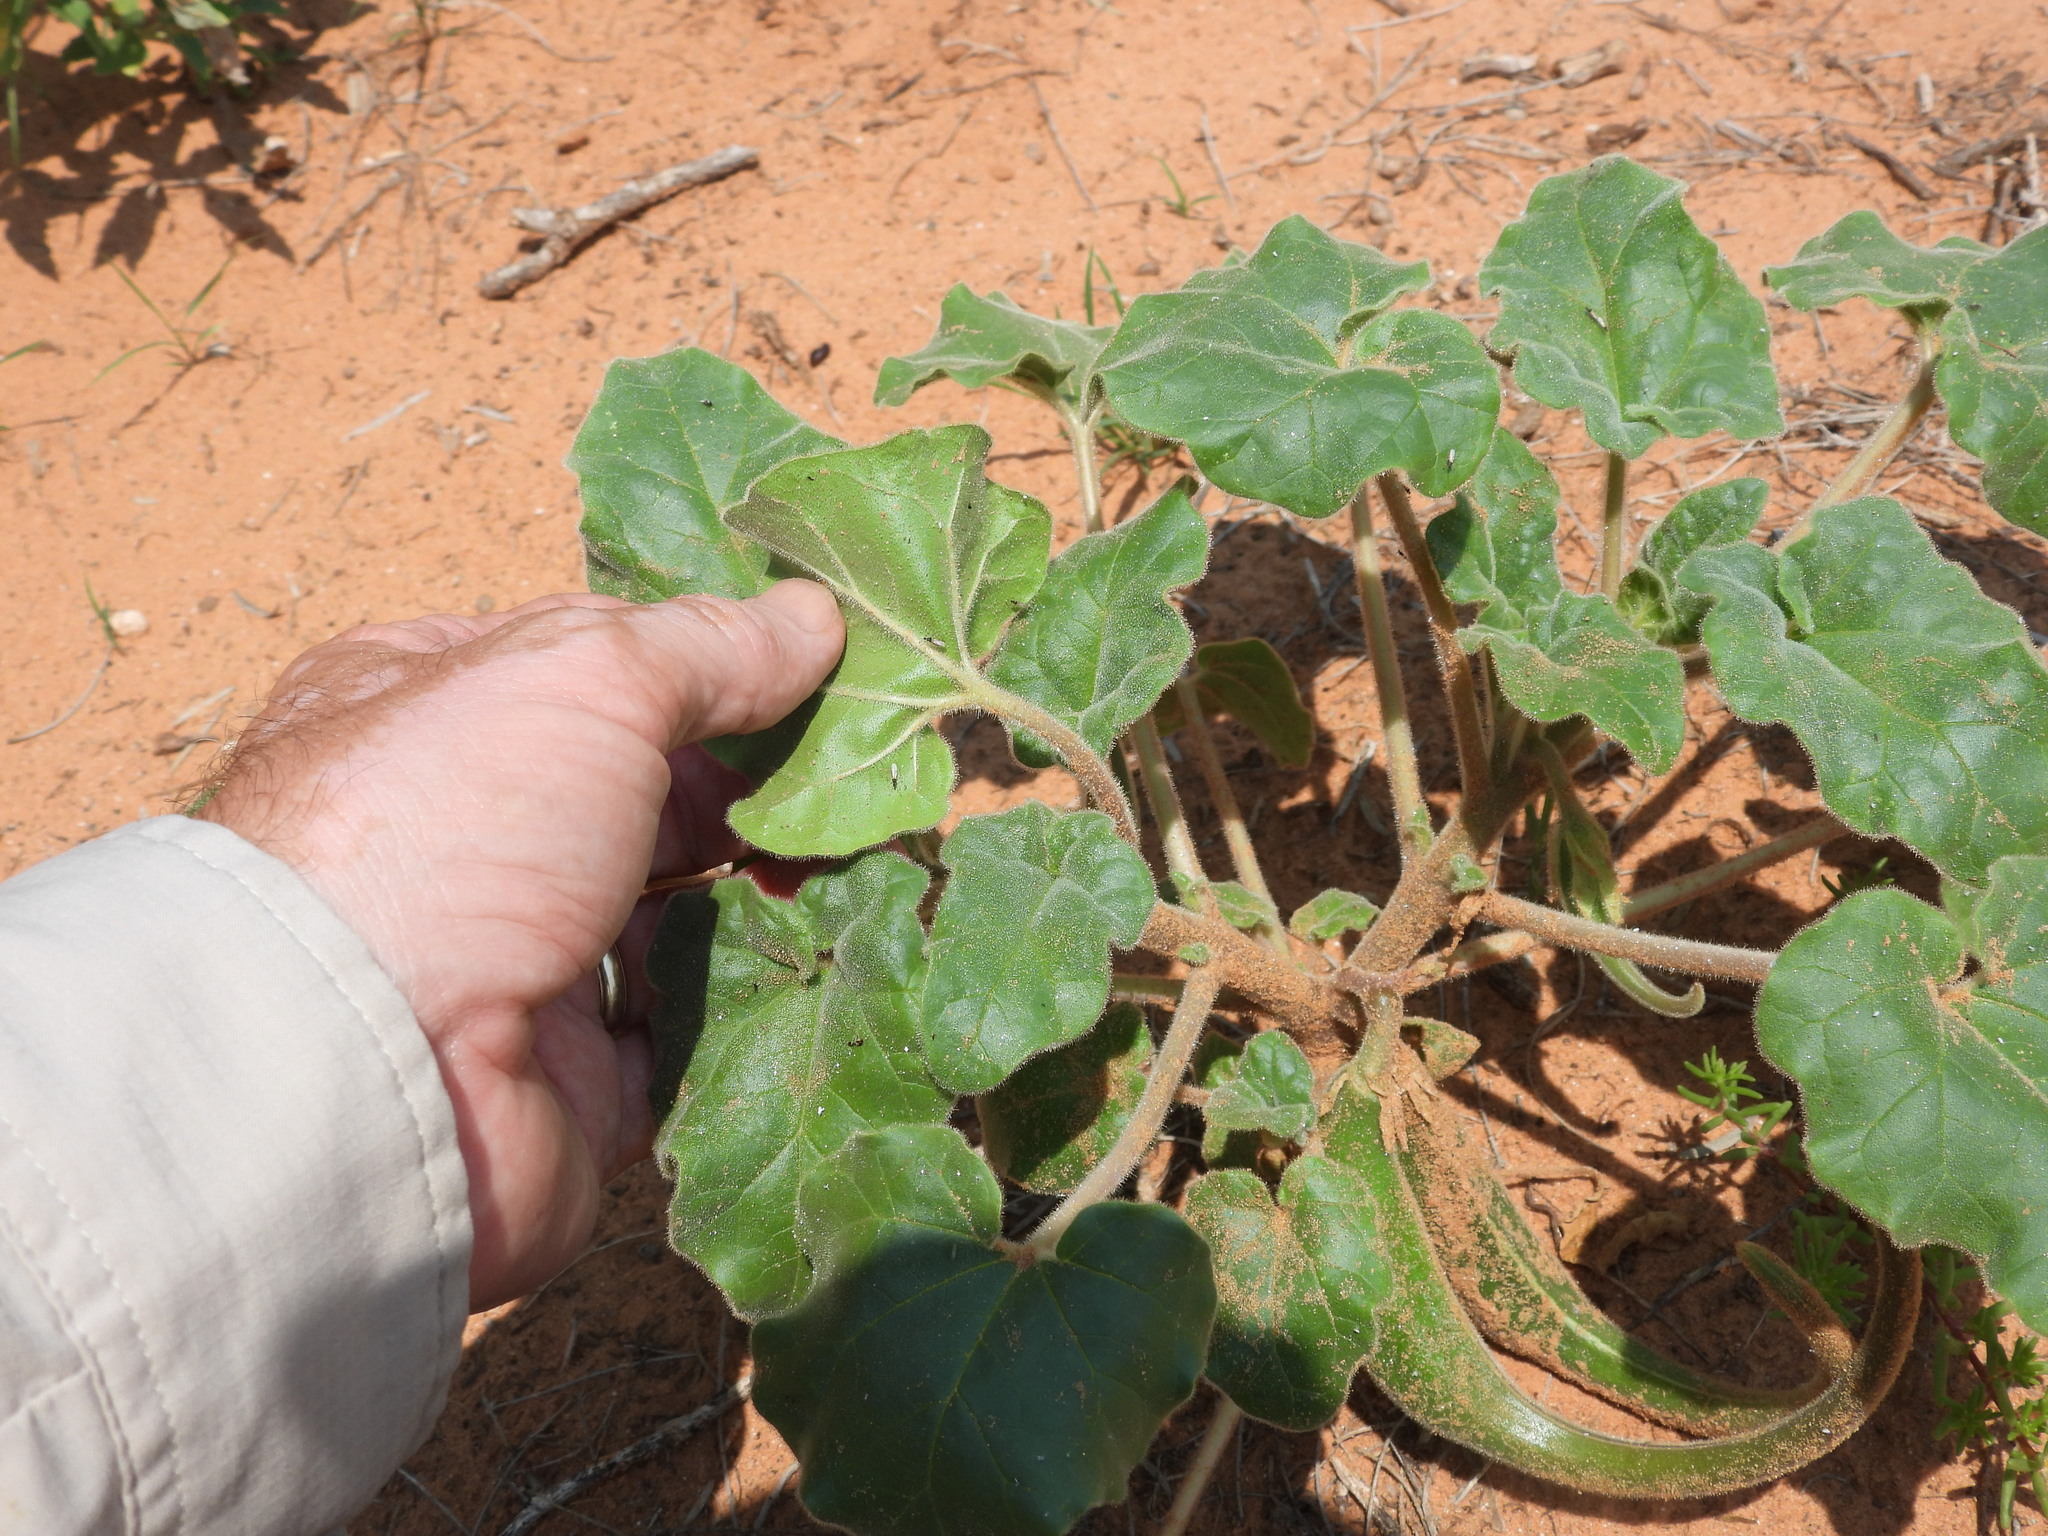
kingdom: Plantae
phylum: Tracheophyta
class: Magnoliopsida
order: Lamiales
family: Martyniaceae
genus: Proboscidea
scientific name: Proboscidea sabulosa
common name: Sand-dune devil's claw
